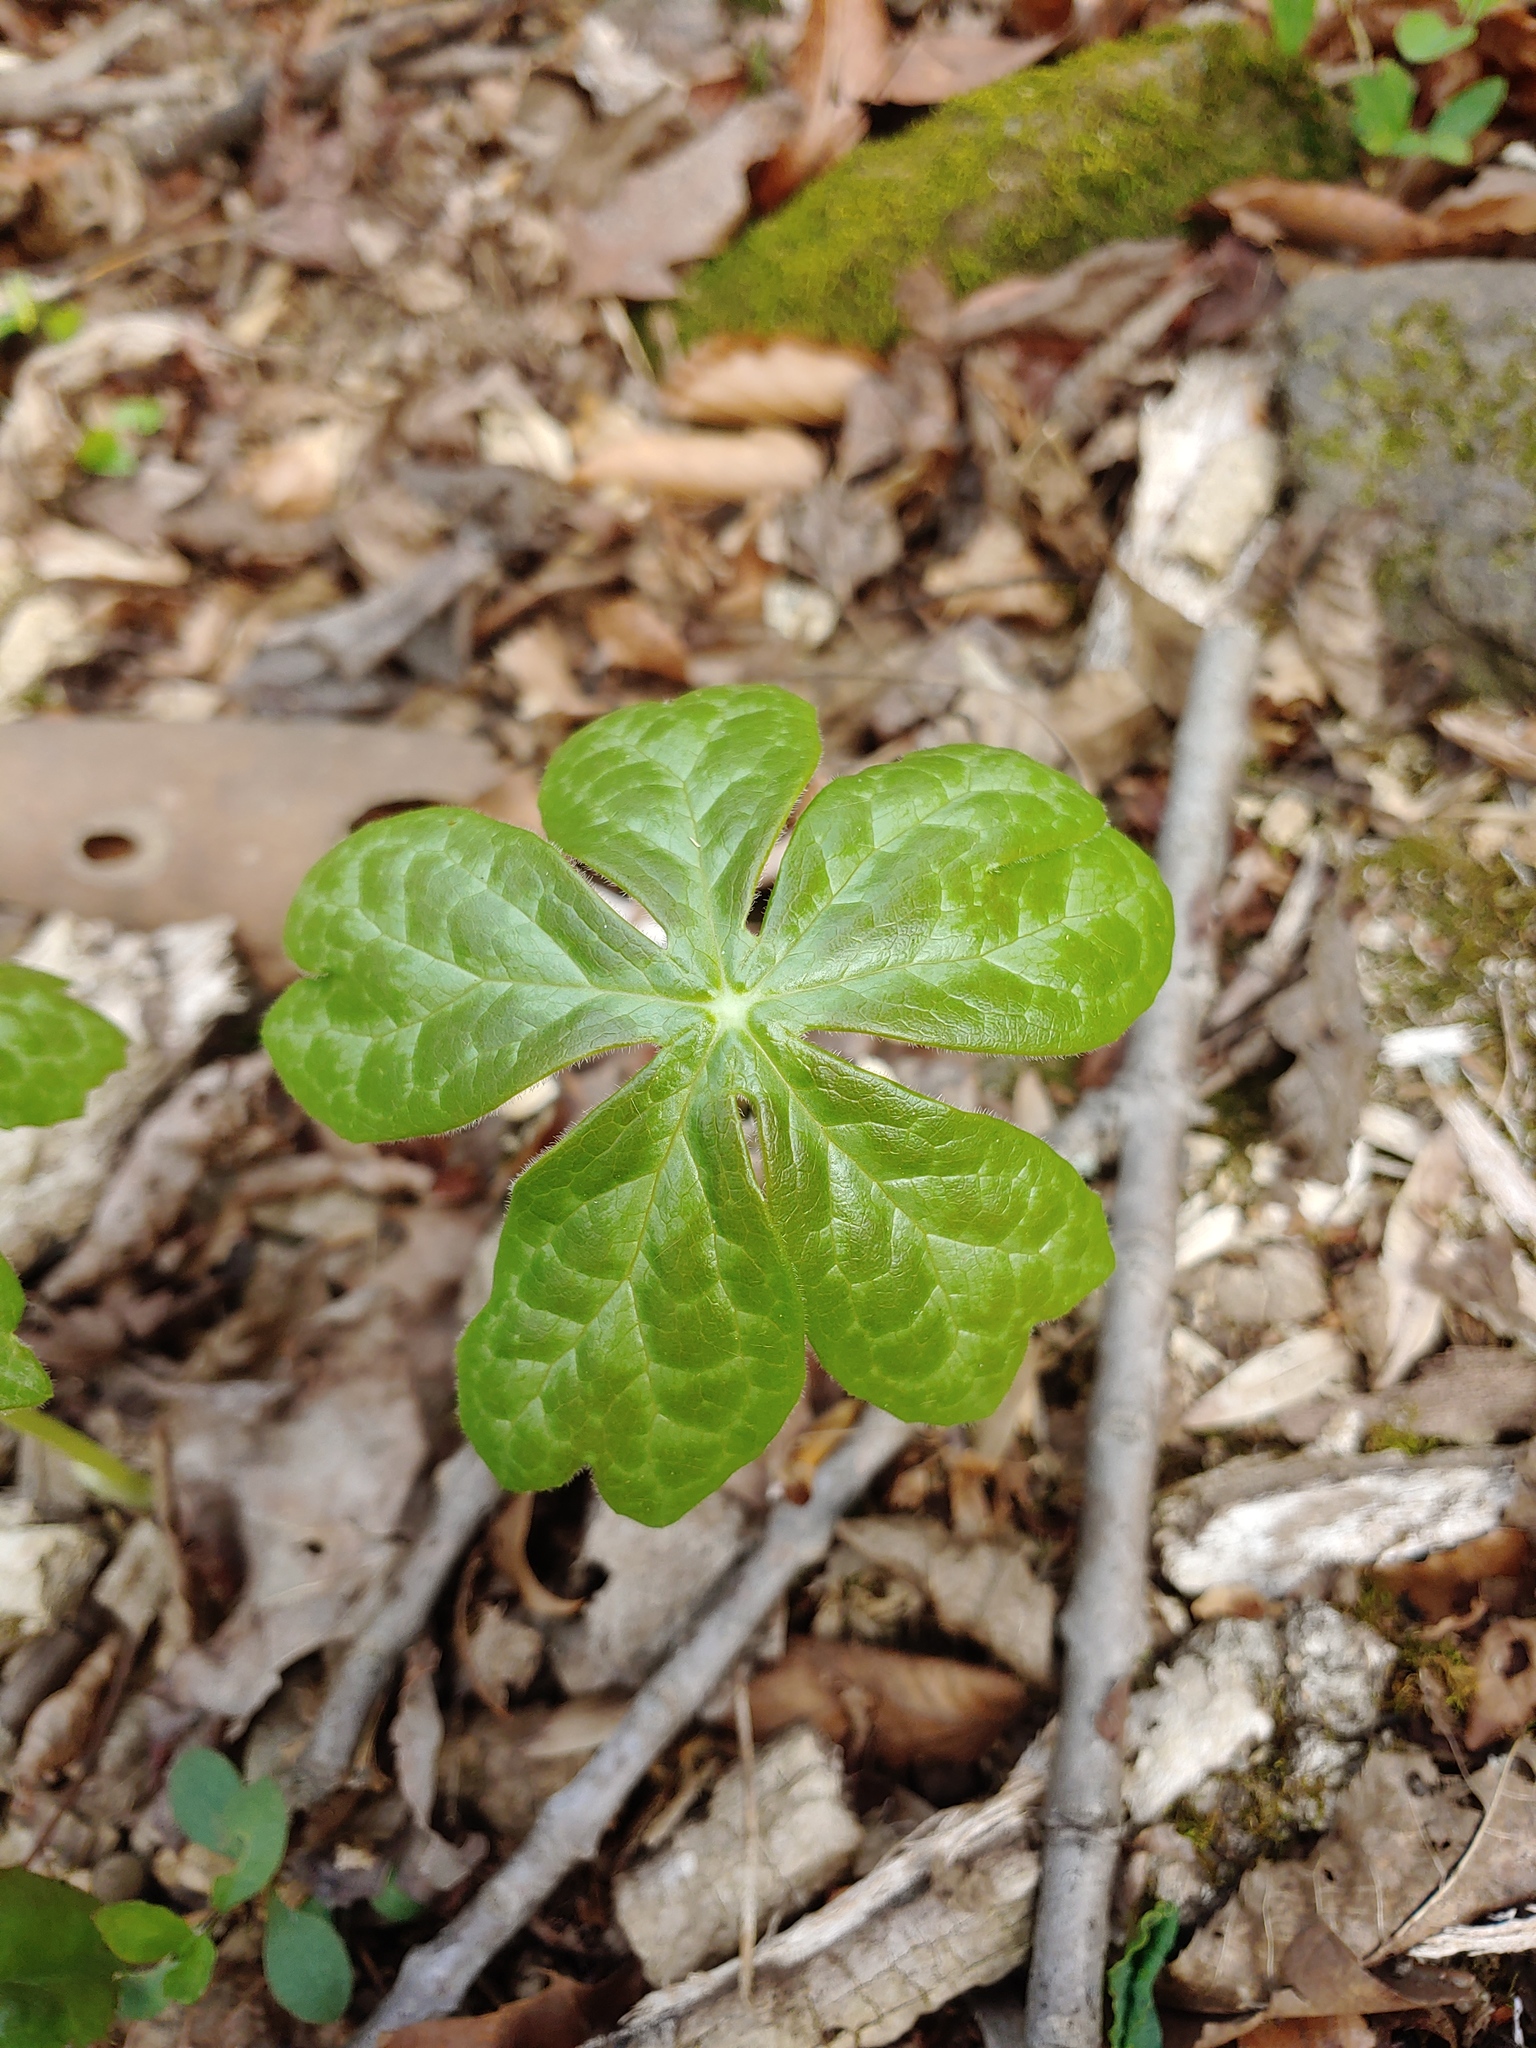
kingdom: Plantae
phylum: Tracheophyta
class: Magnoliopsida
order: Ranunculales
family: Berberidaceae
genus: Podophyllum
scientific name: Podophyllum peltatum
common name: Wild mandrake
